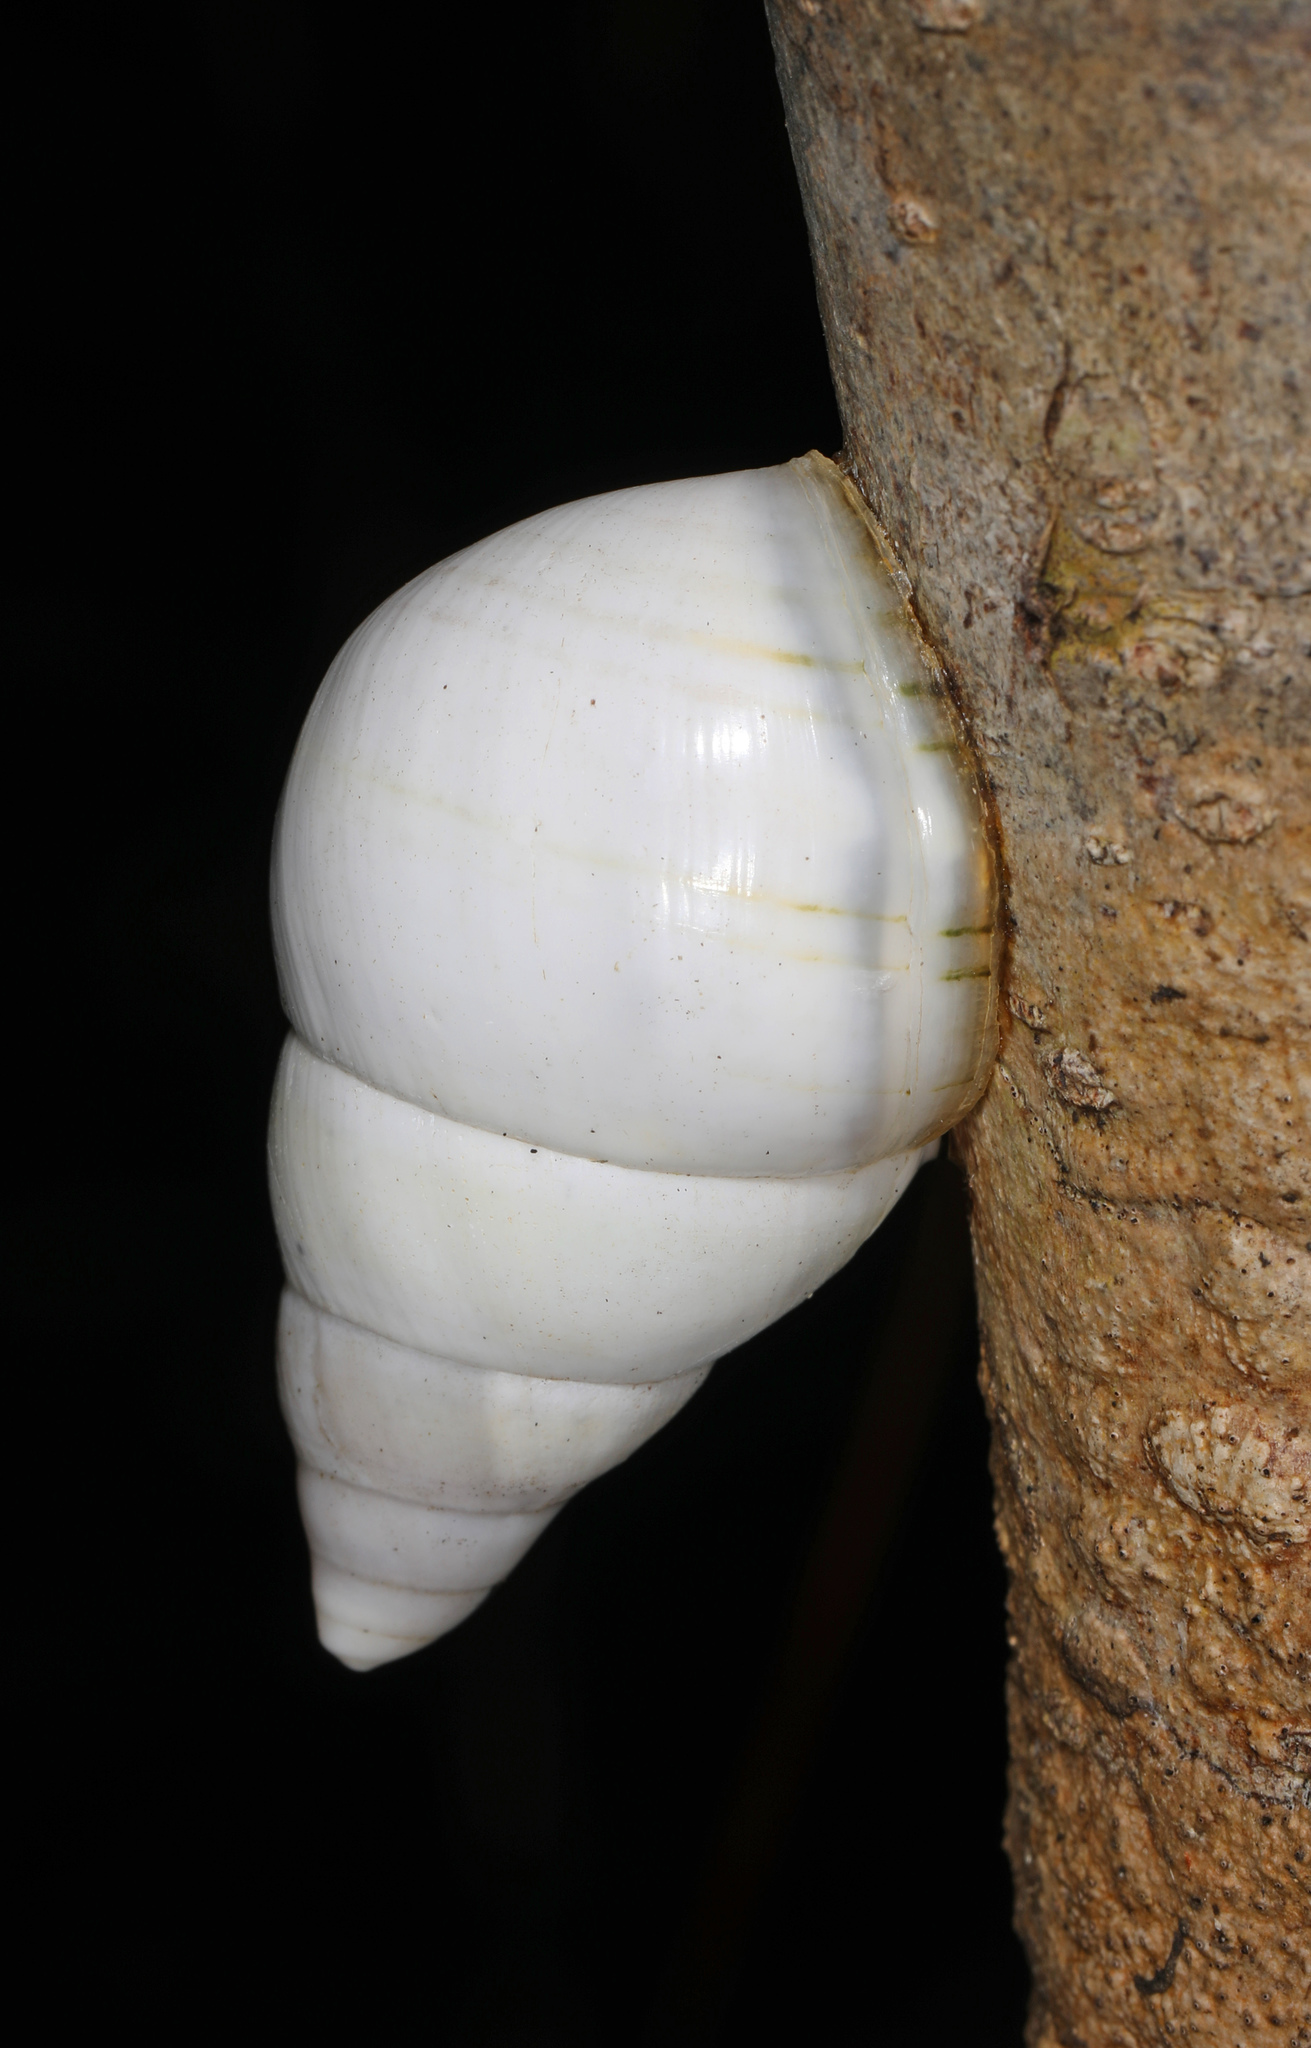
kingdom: Animalia
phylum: Mollusca
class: Gastropoda
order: Stylommatophora
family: Orthalicidae
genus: Liguus
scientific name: Liguus fasciatus
